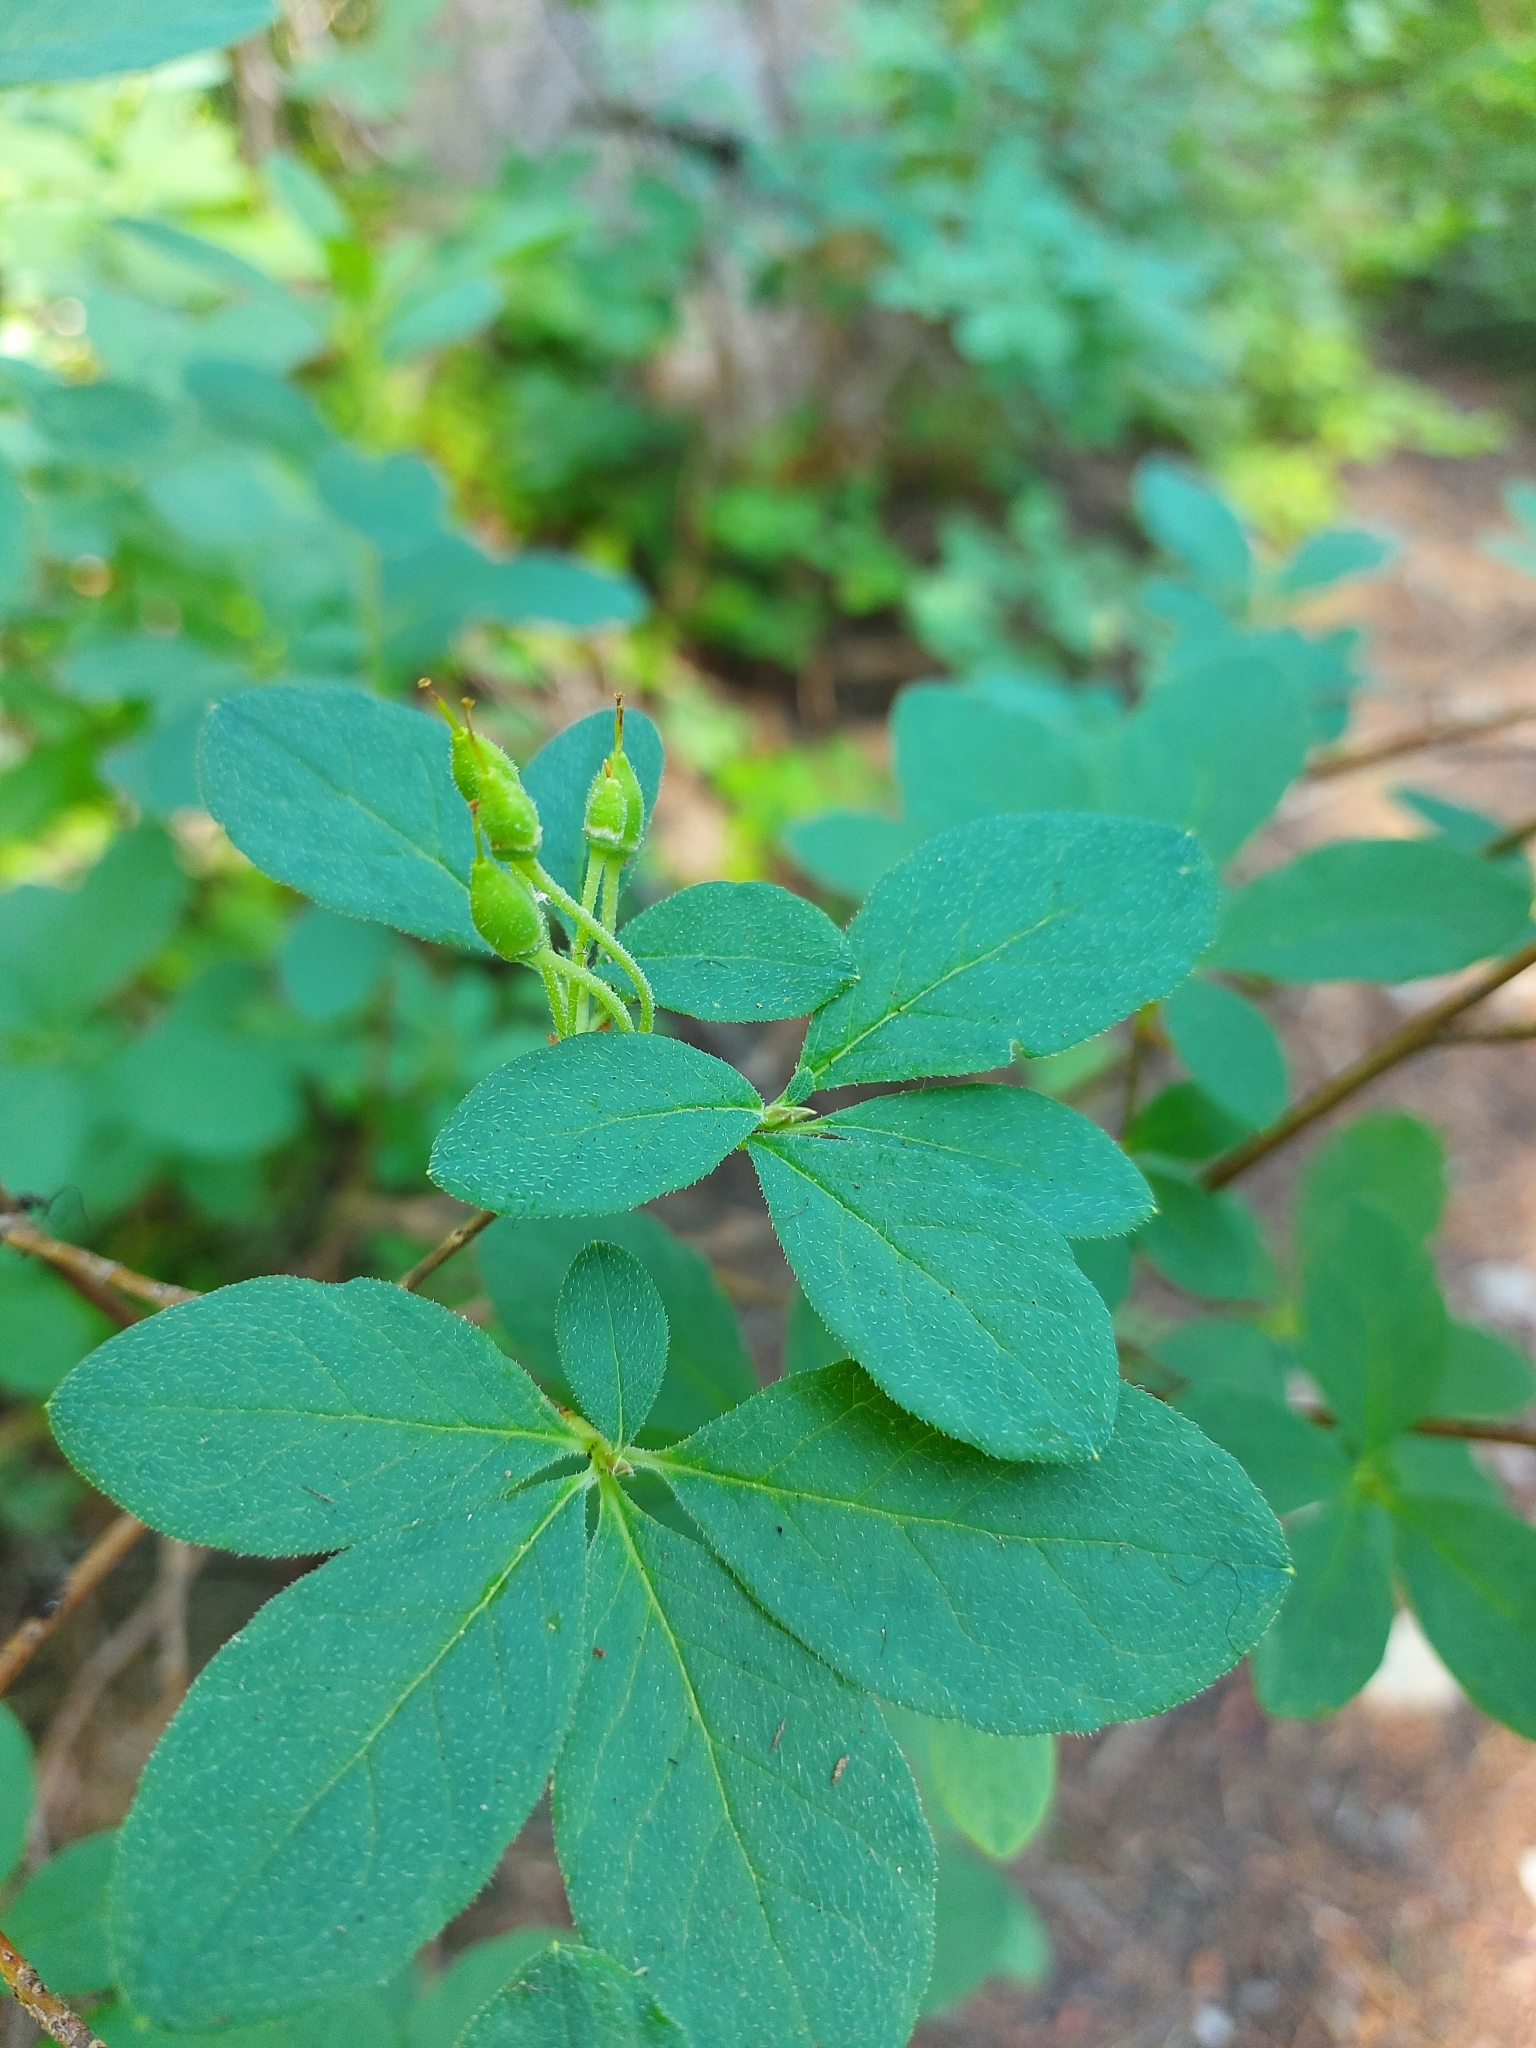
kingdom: Plantae
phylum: Tracheophyta
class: Magnoliopsida
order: Ericales
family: Ericaceae
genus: Rhododendron
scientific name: Rhododendron menziesii
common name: Pacific menziesia
